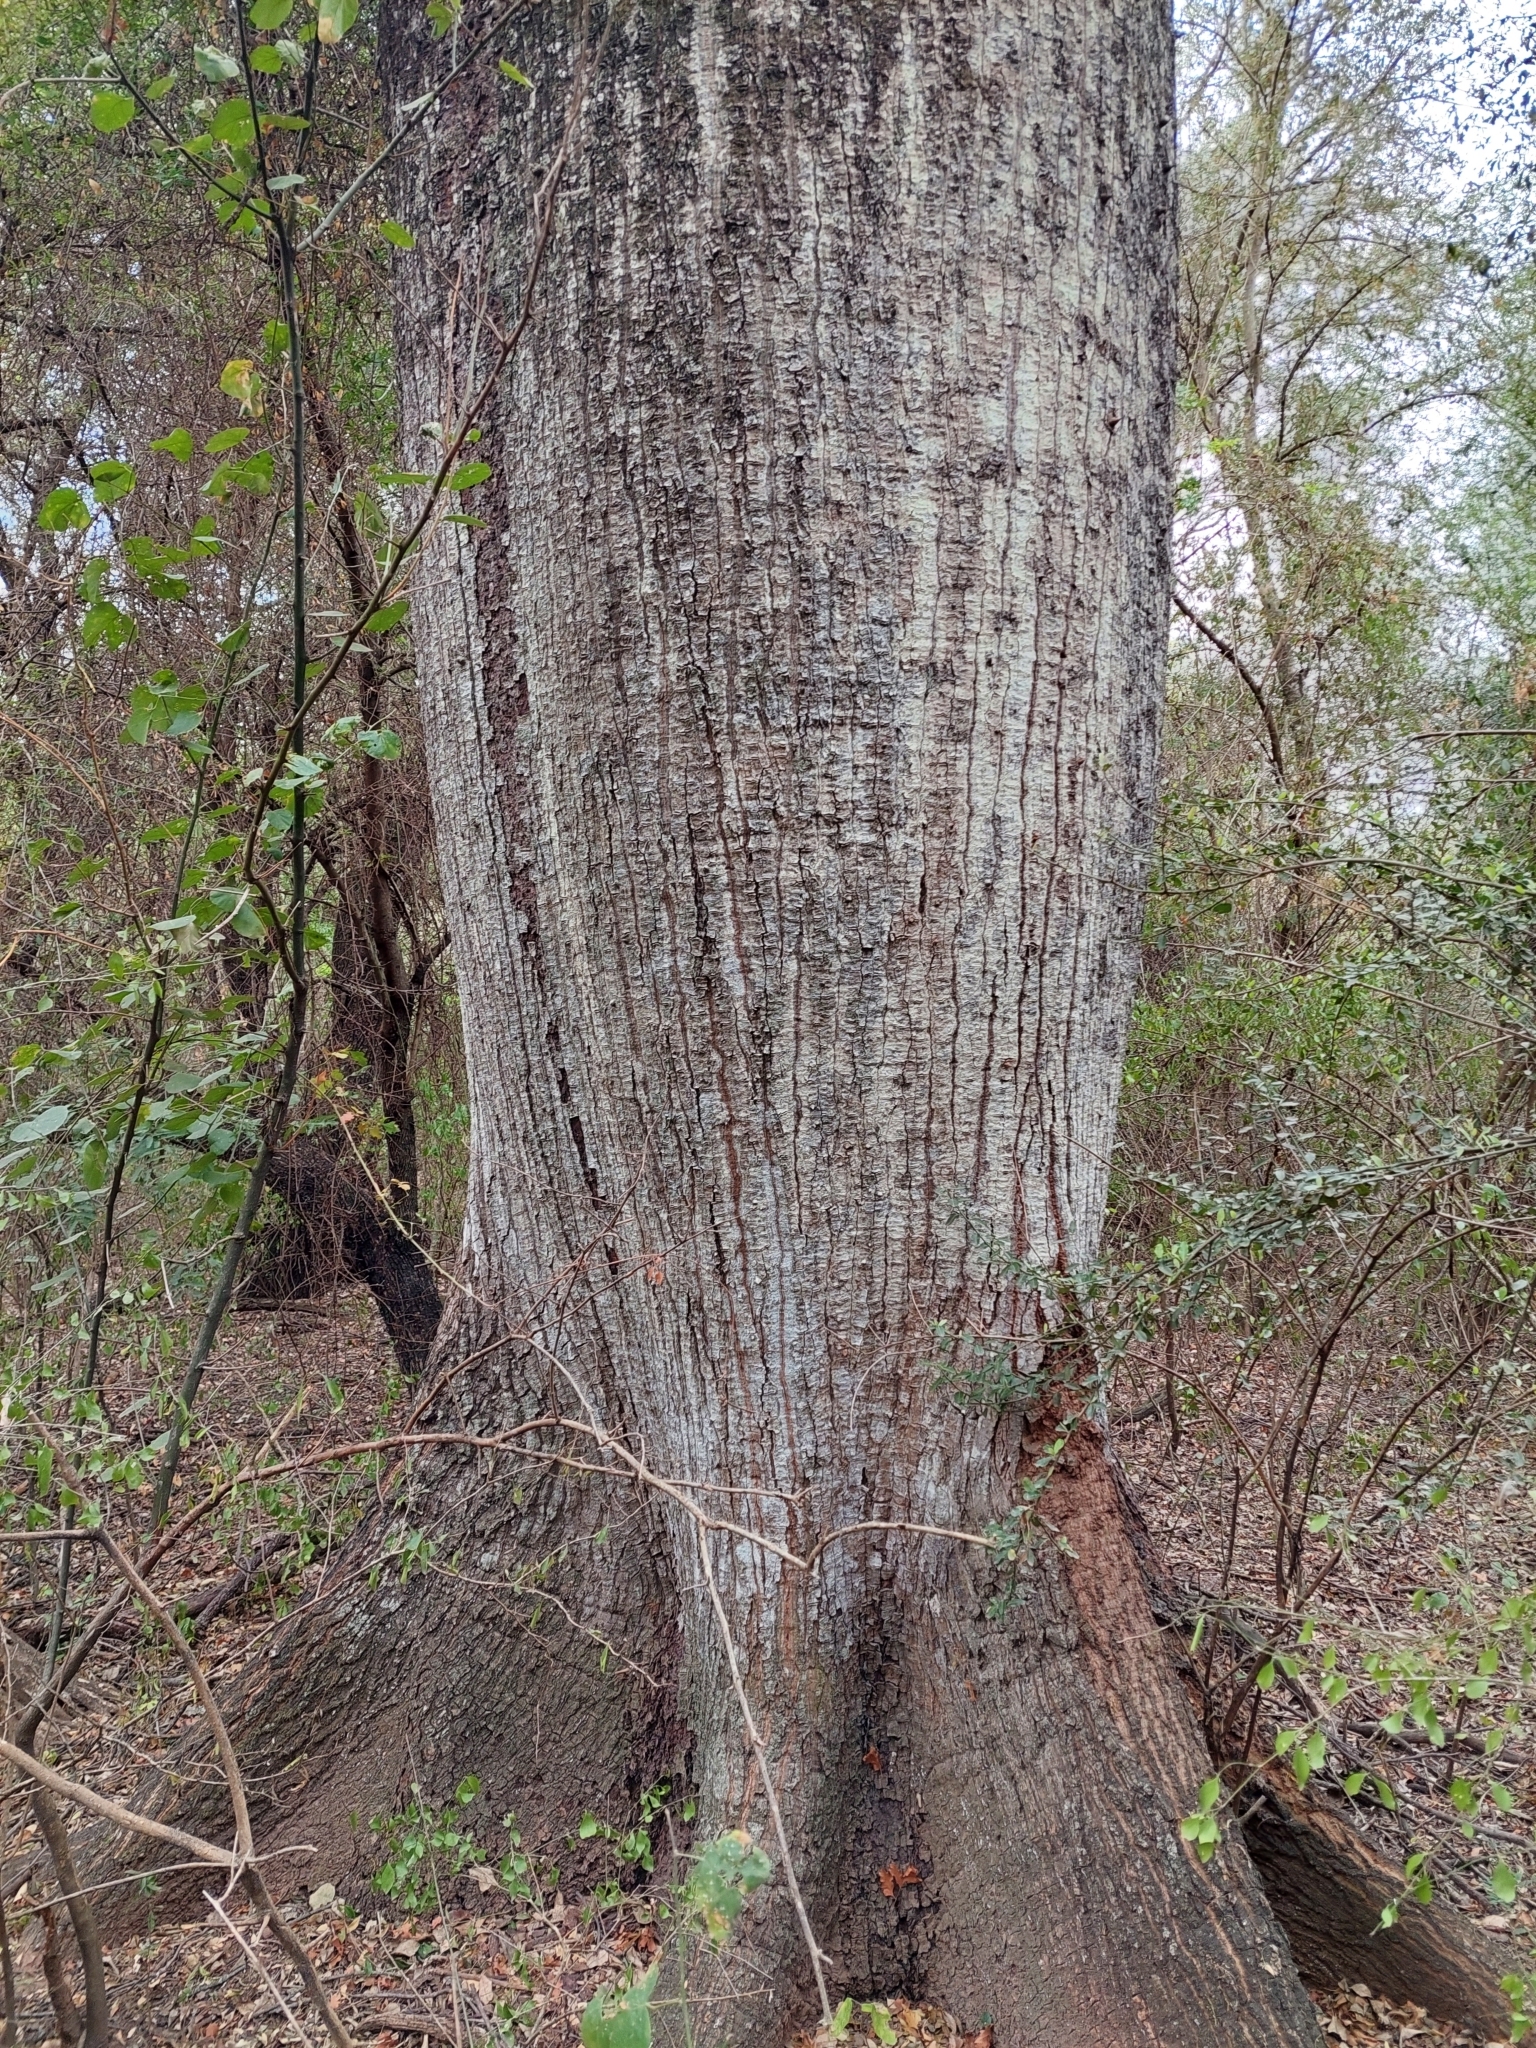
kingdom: Plantae
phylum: Tracheophyta
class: Magnoliopsida
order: Malvales
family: Malvaceae
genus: Ceiba
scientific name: Ceiba chodatii
